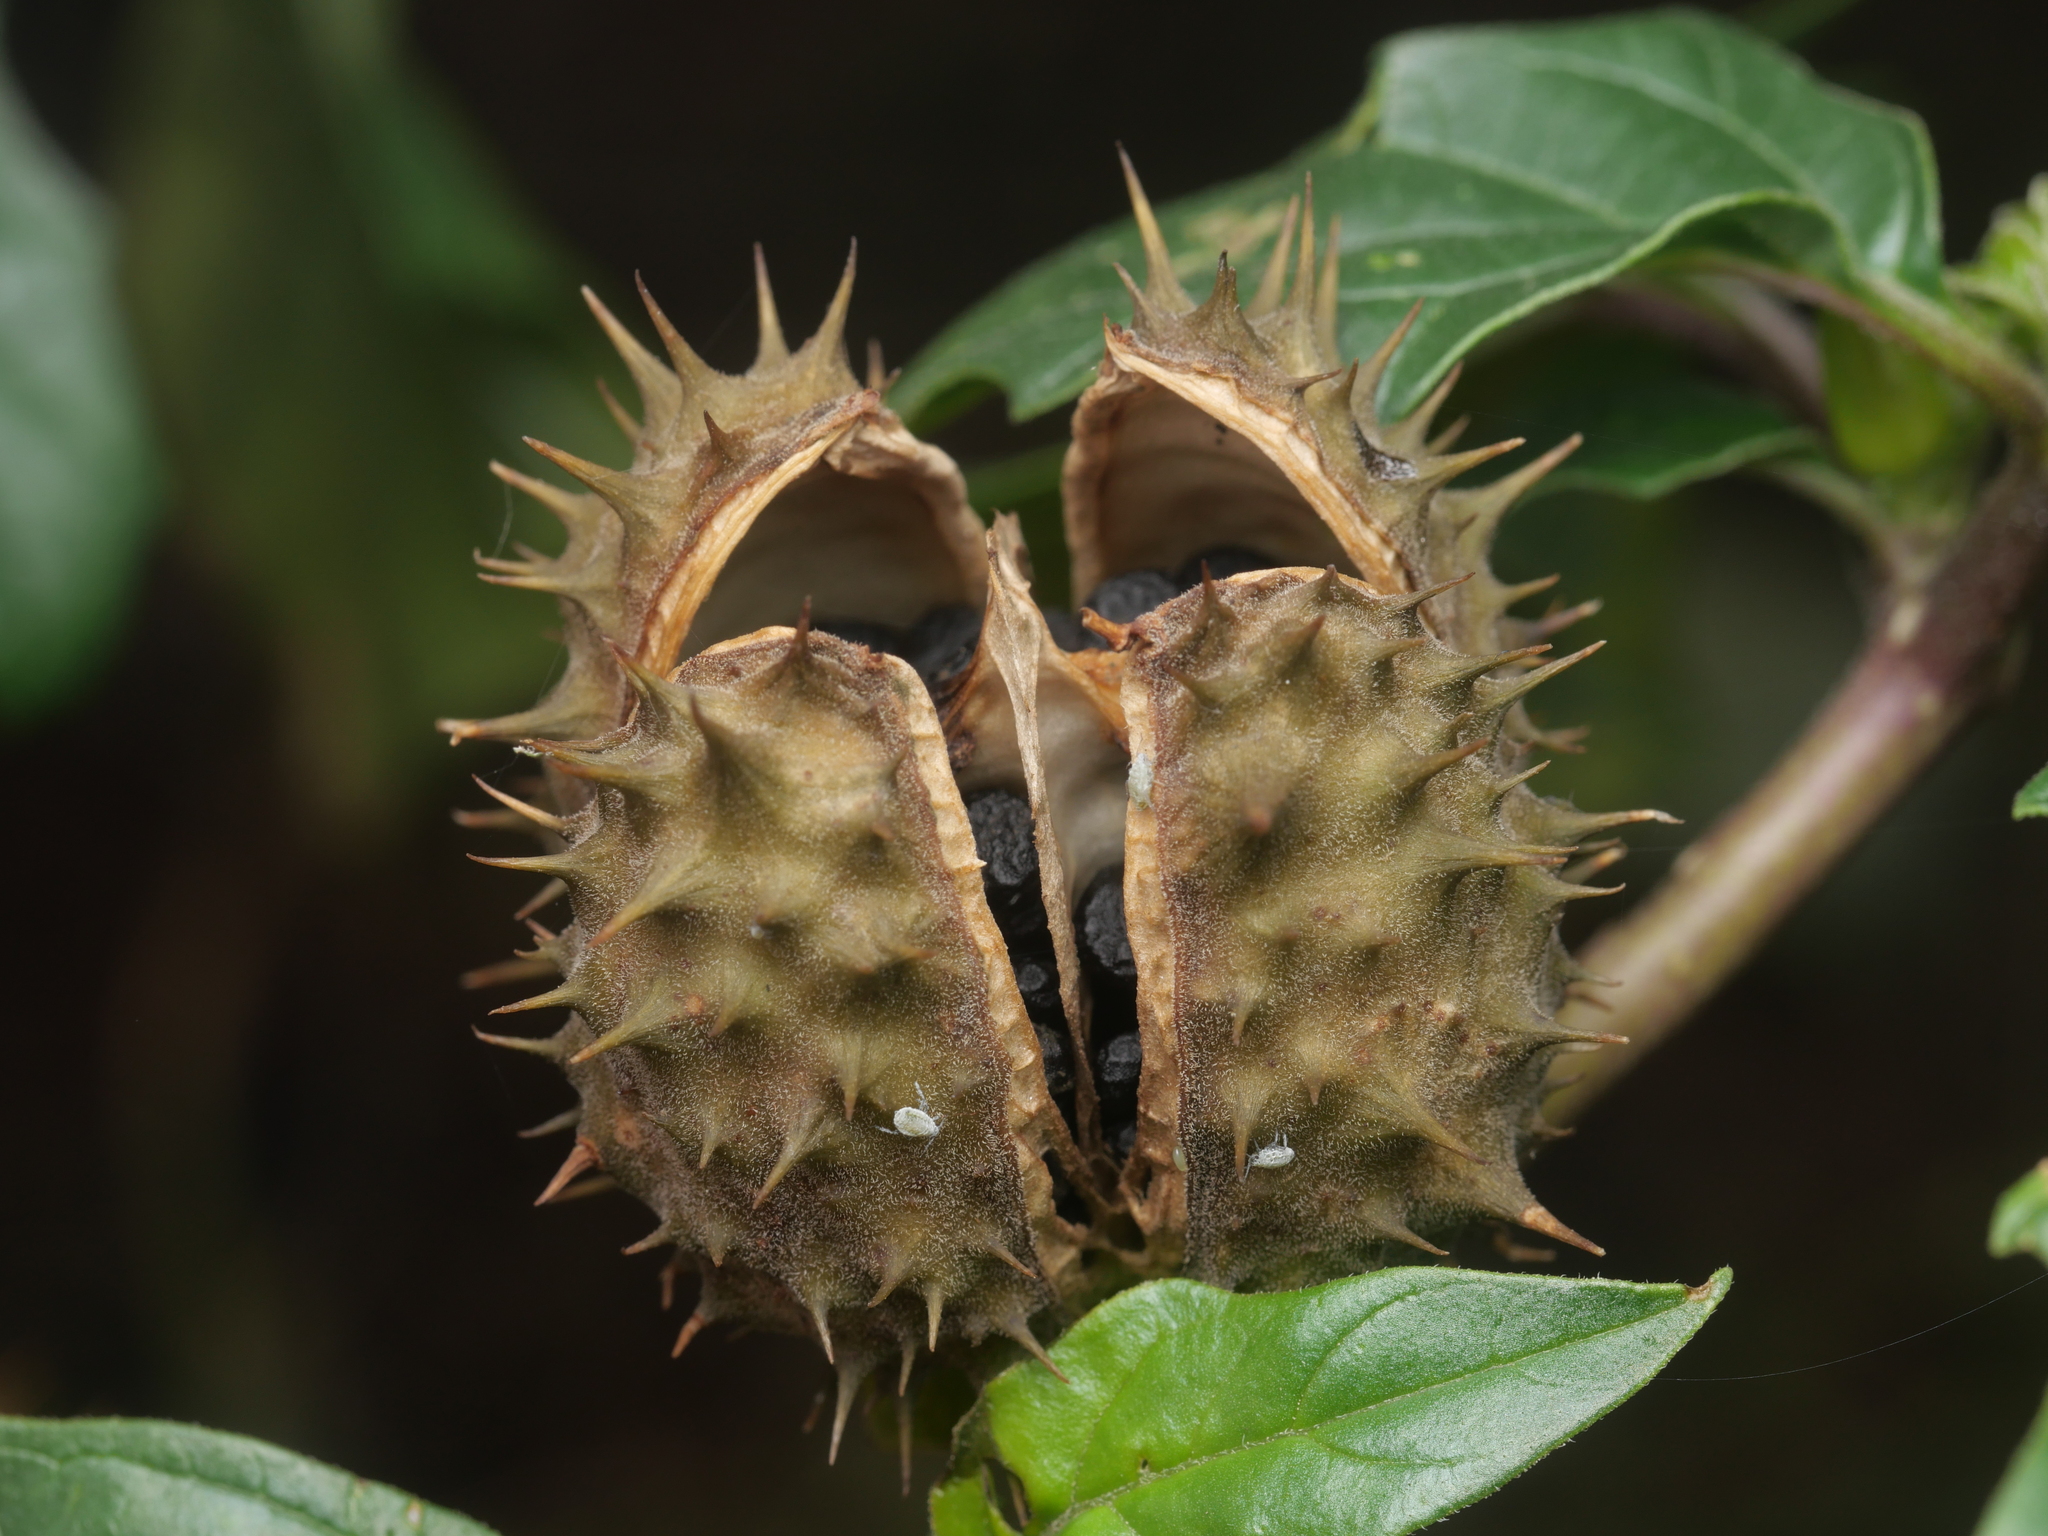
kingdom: Plantae
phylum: Tracheophyta
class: Magnoliopsida
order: Solanales
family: Solanaceae
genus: Datura
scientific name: Datura stramonium
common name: Thorn-apple
